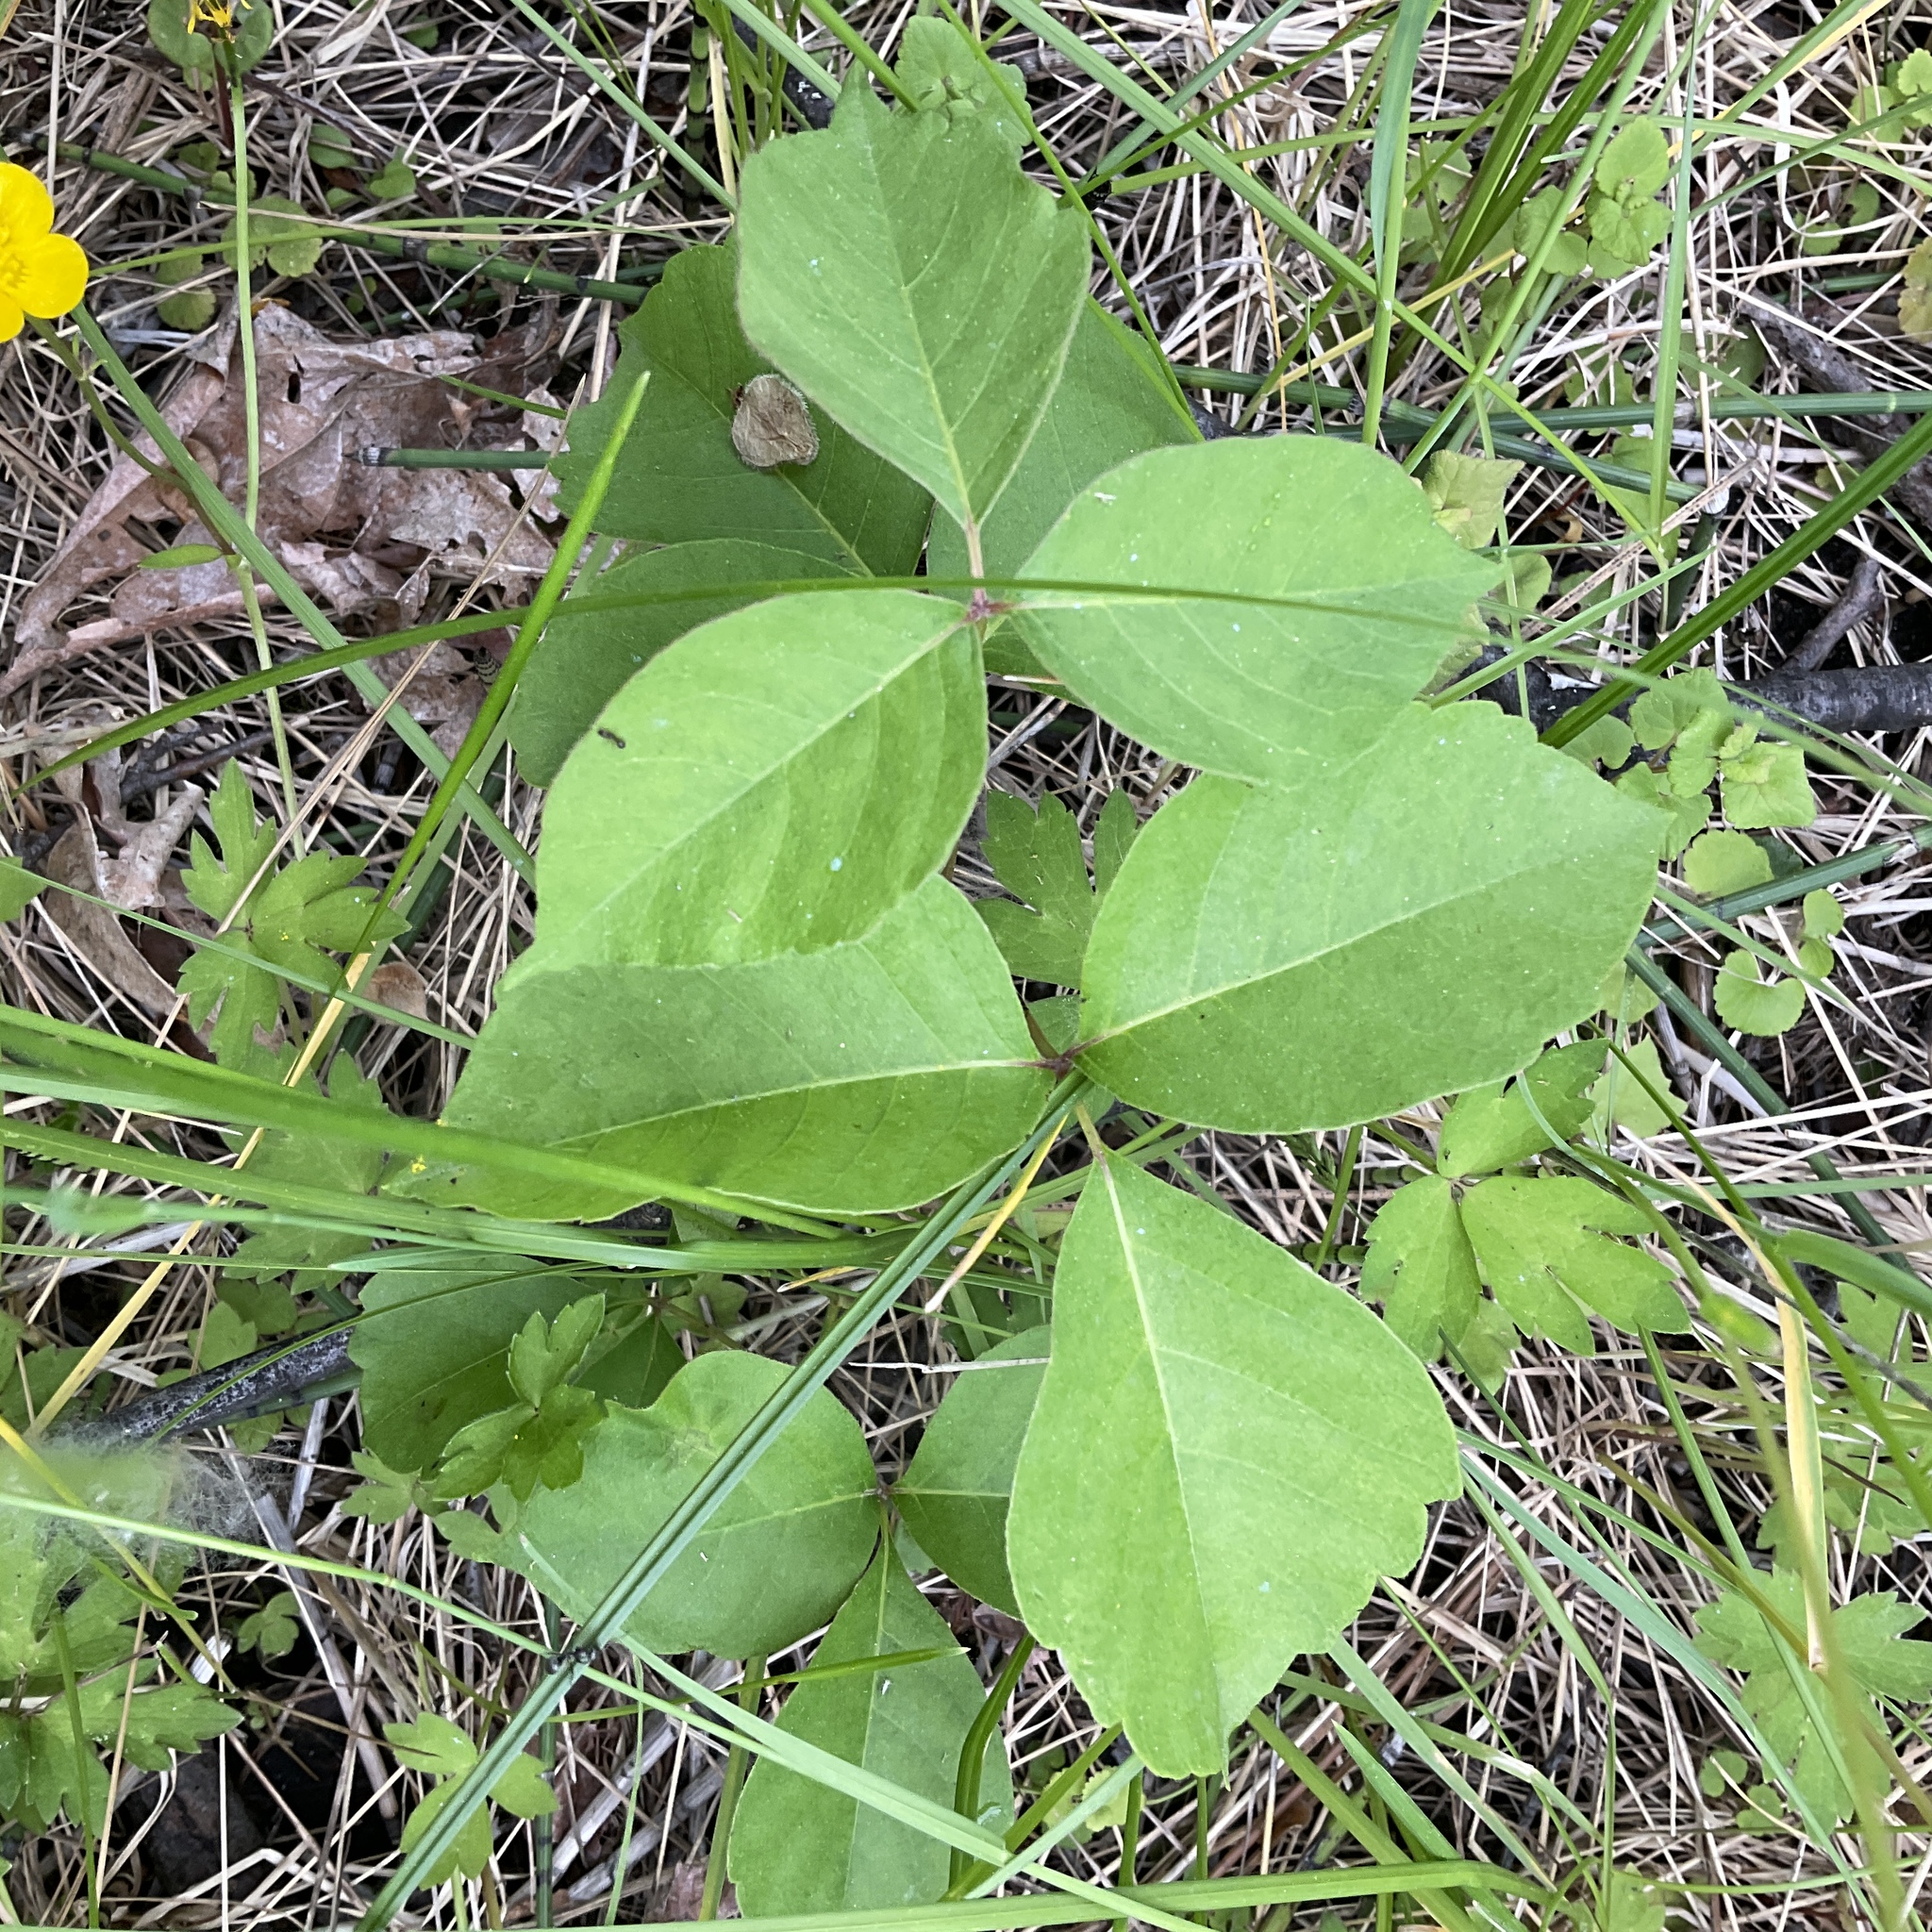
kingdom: Plantae
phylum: Tracheophyta
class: Magnoliopsida
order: Sapindales
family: Anacardiaceae
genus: Toxicodendron
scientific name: Toxicodendron rydbergii
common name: Rydberg's poison-ivy
